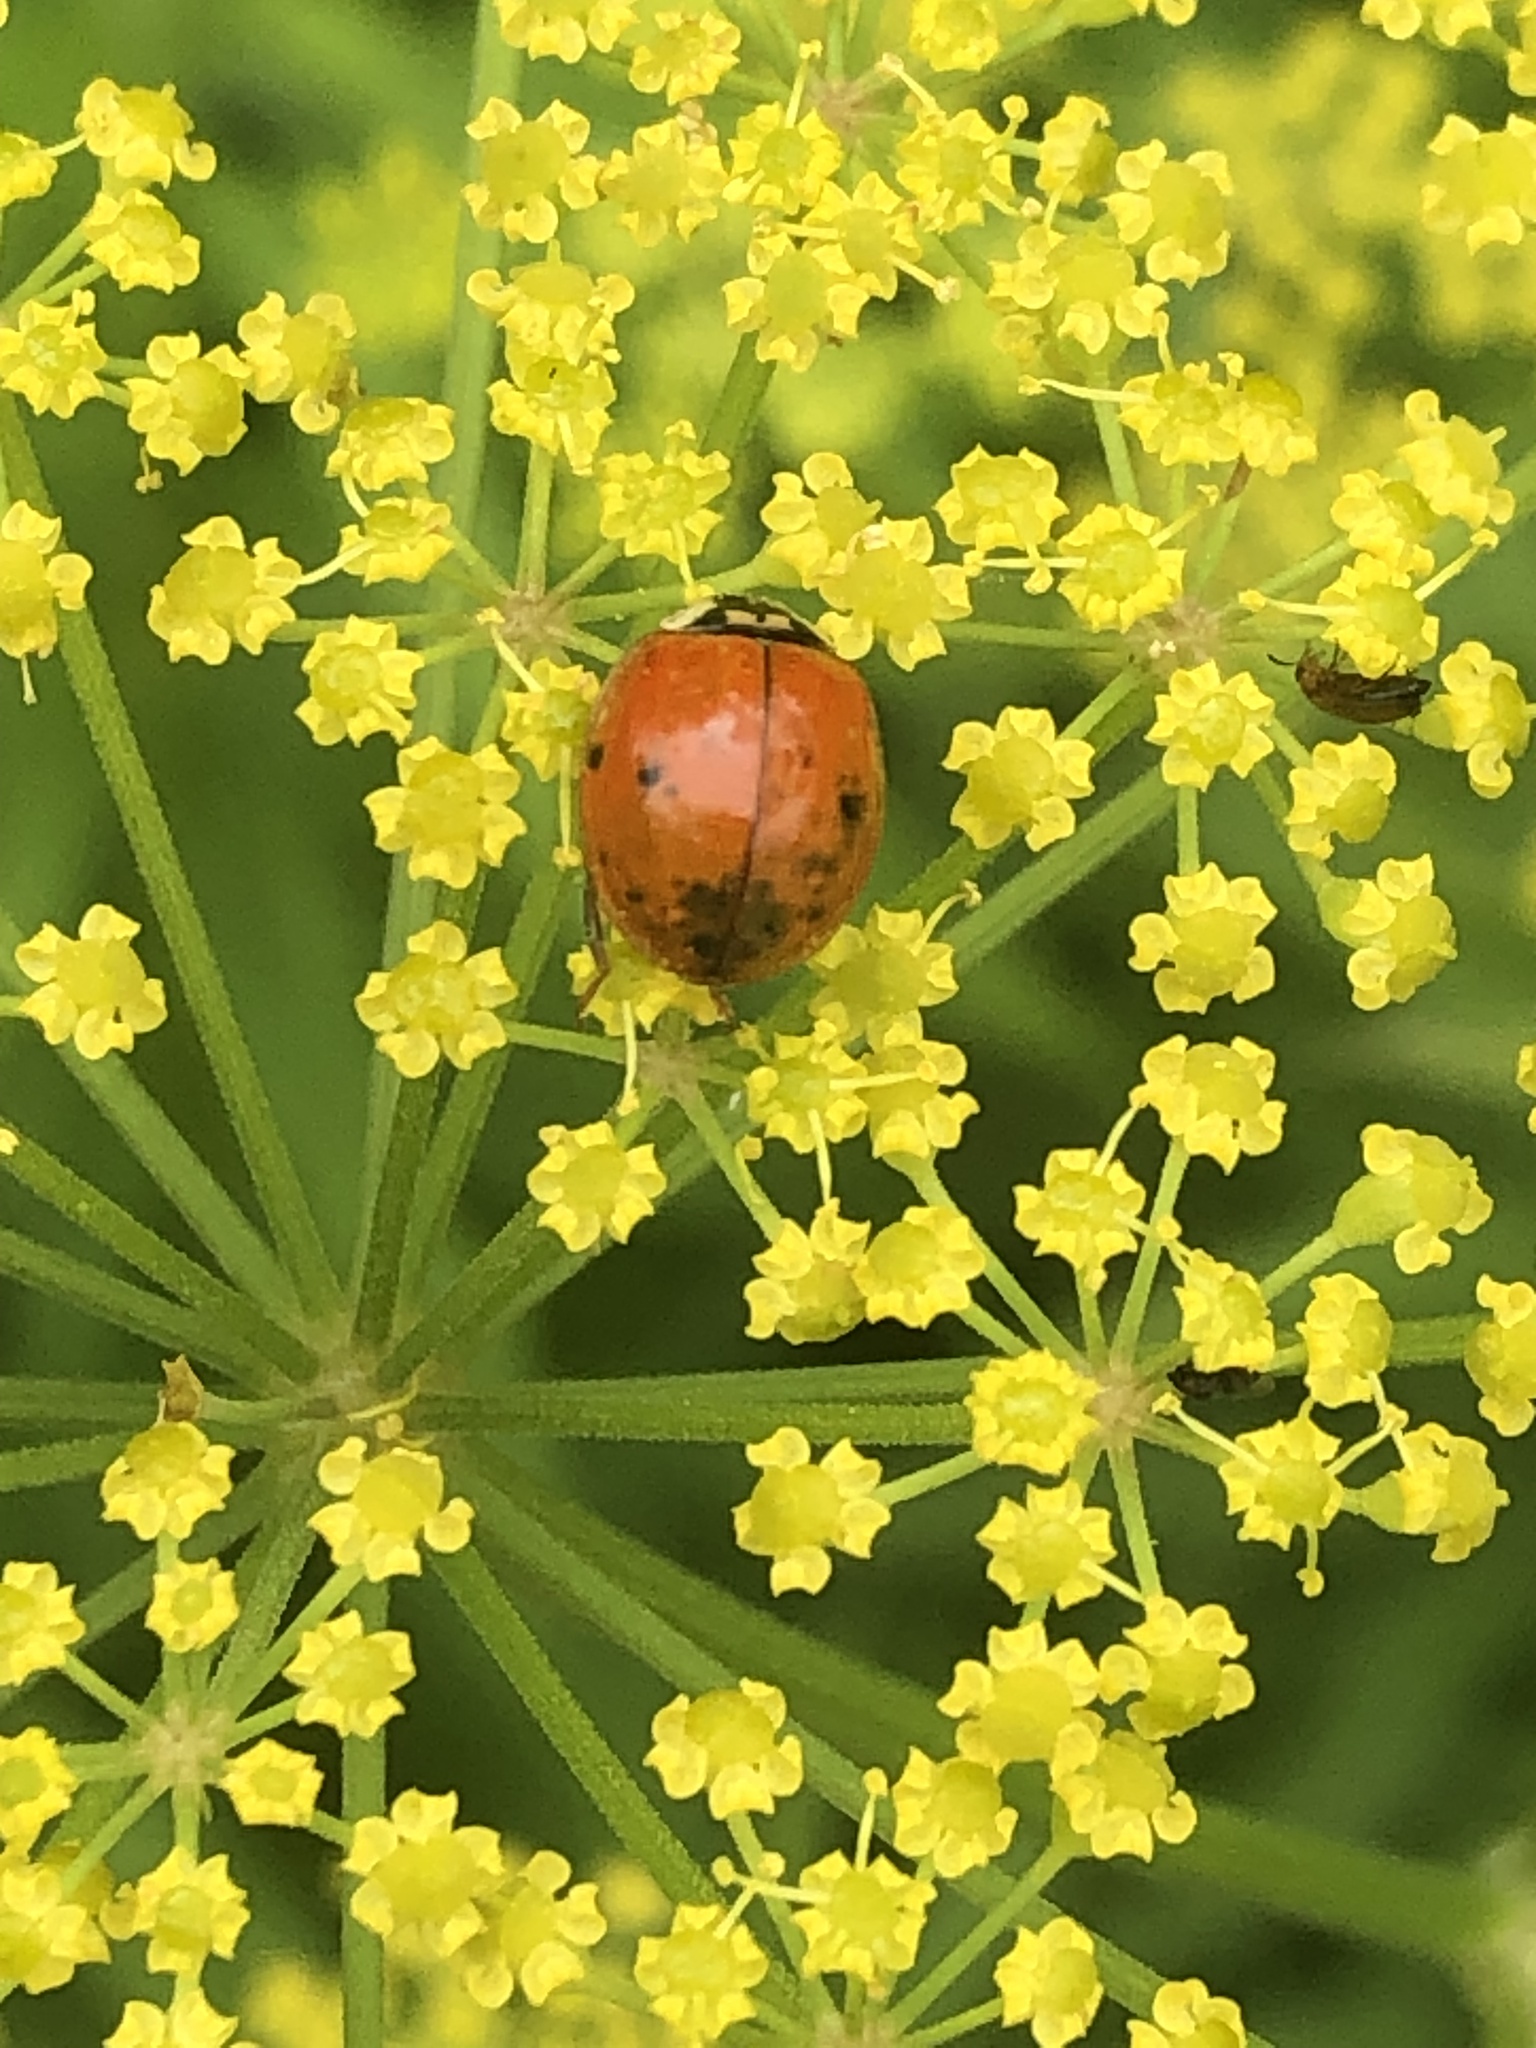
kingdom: Animalia
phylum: Arthropoda
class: Insecta
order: Coleoptera
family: Coccinellidae
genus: Harmonia
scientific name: Harmonia axyridis
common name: Harlequin ladybird
